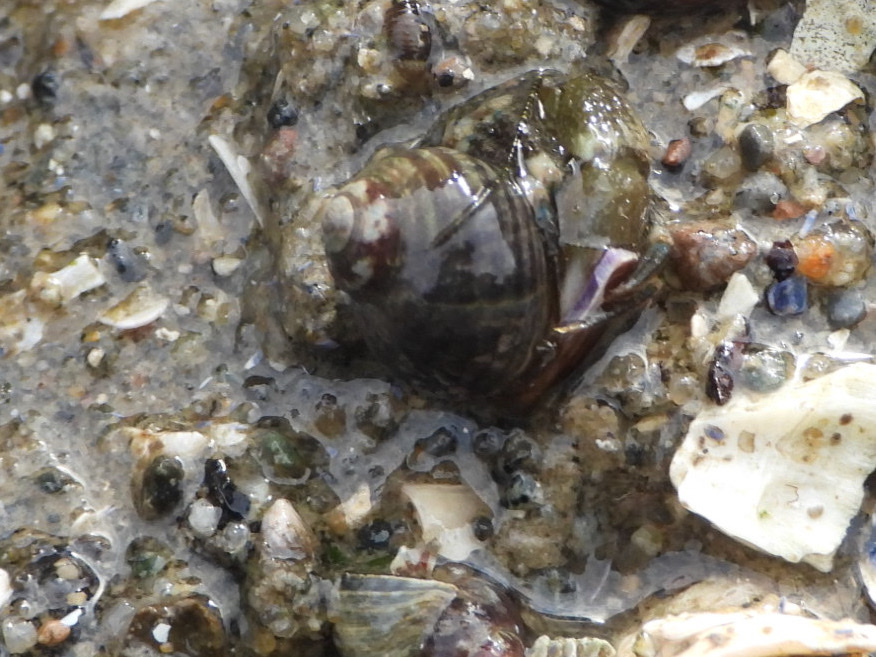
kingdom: Animalia
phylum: Arthropoda
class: Malacostraca
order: Decapoda
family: Paguridae
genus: Pagurus
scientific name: Pagurus hirsutiusculus
